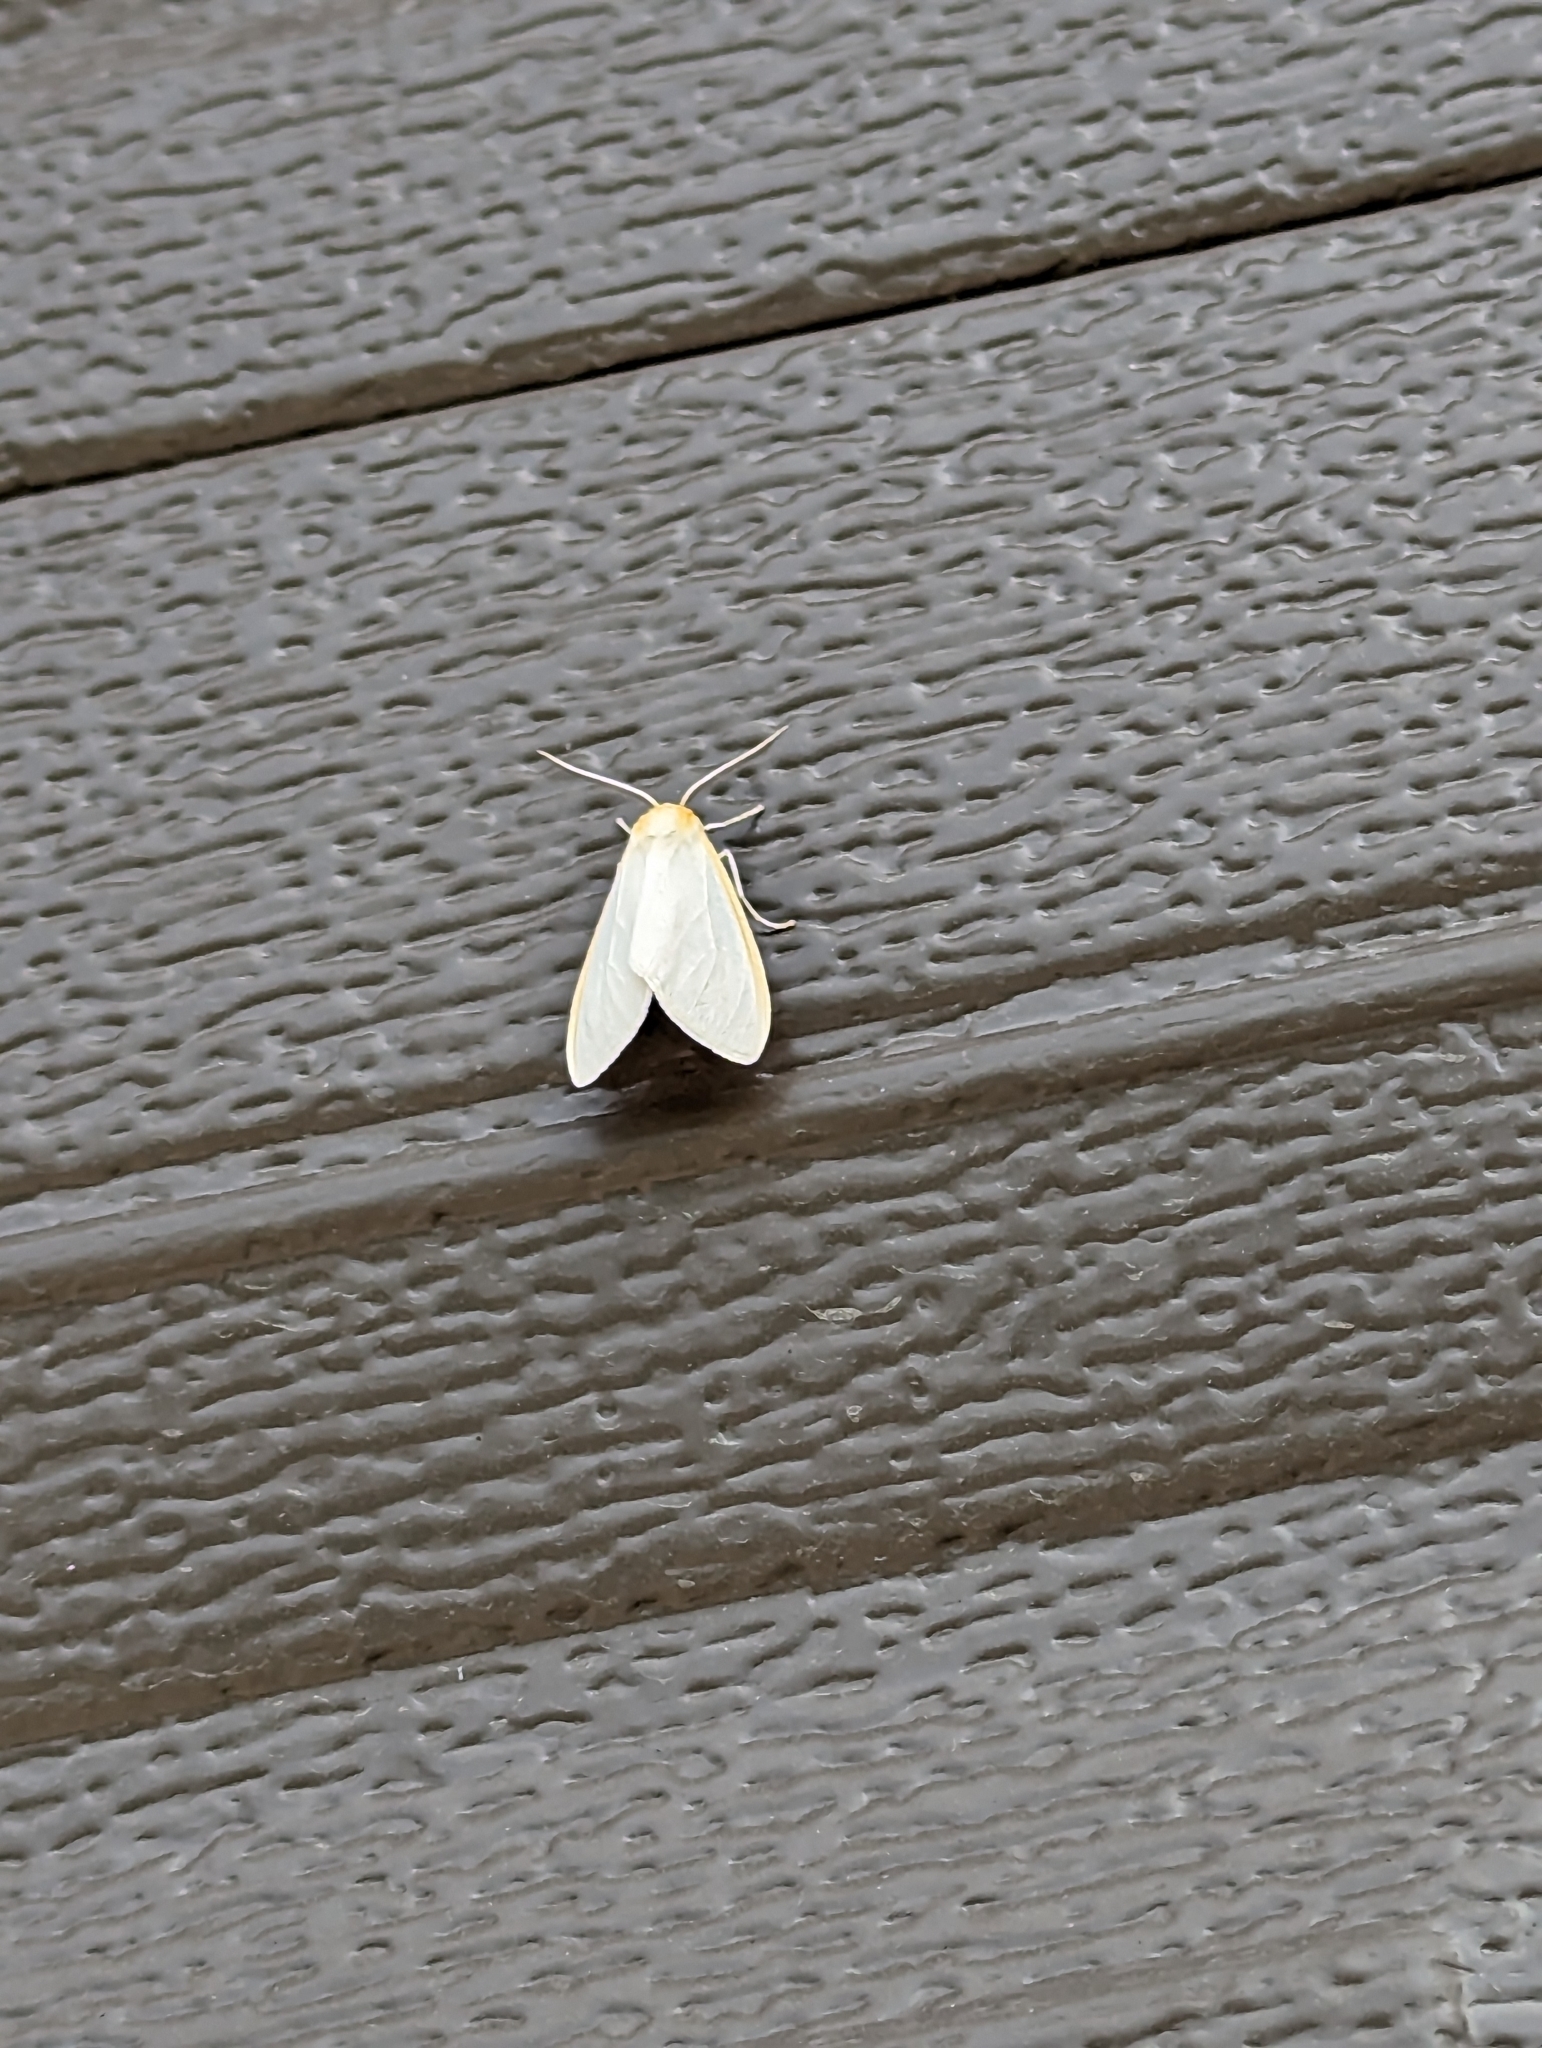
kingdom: Animalia
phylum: Arthropoda
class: Insecta
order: Lepidoptera
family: Erebidae
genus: Cycnia
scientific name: Cycnia tenera
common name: Delicate cycnia moth
